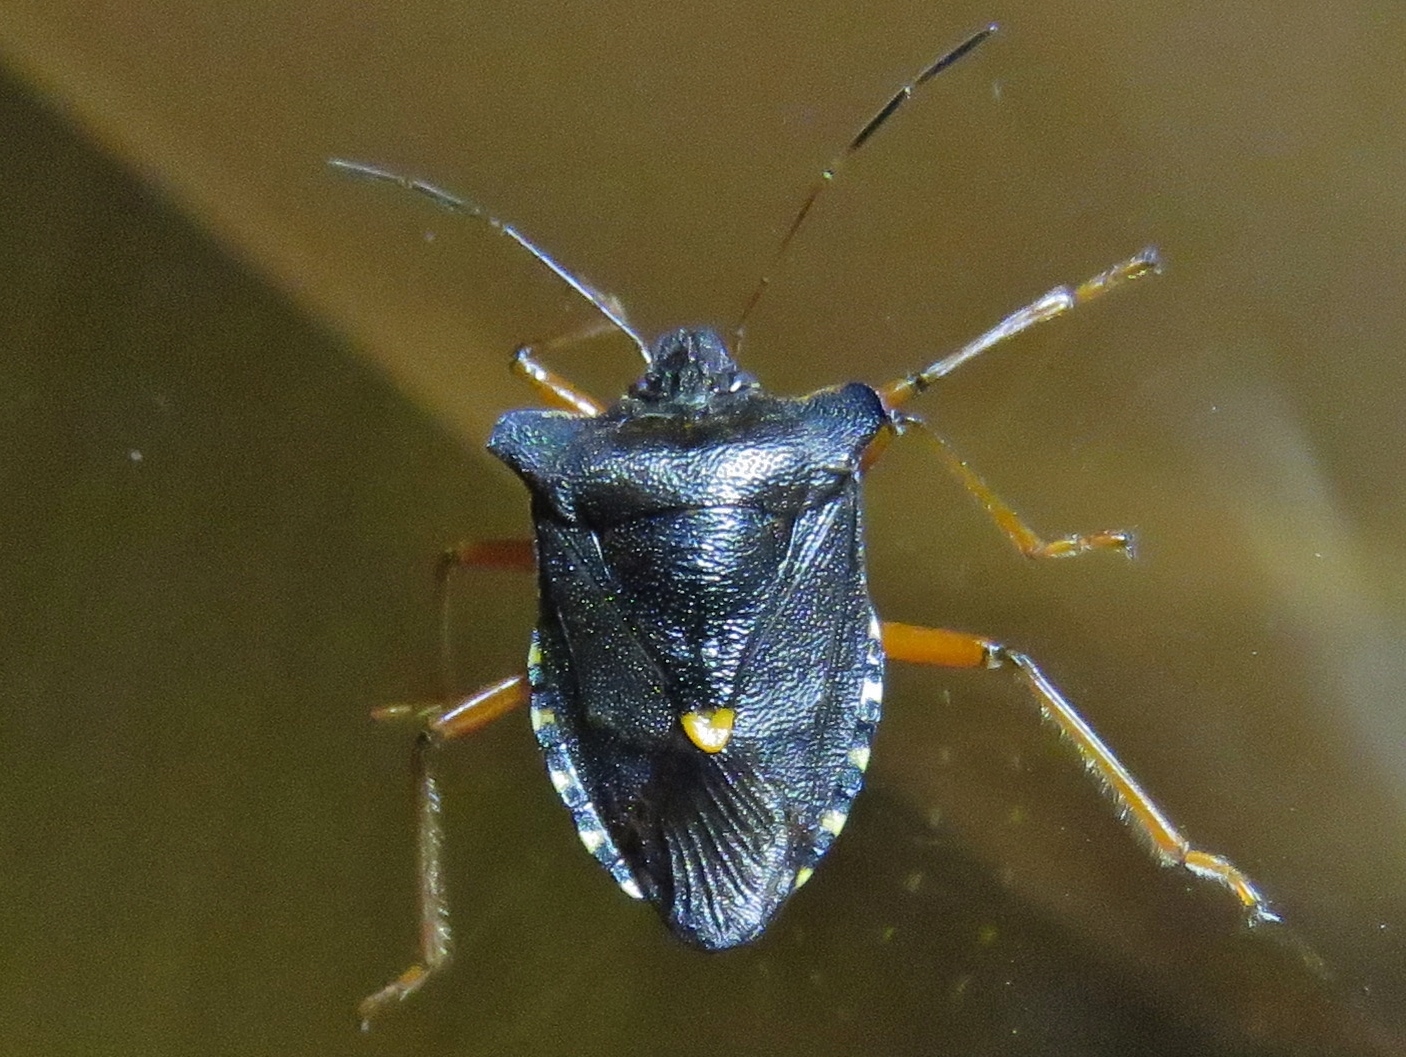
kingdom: Animalia
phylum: Arthropoda
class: Insecta
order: Hemiptera
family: Pentatomidae
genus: Pentatoma
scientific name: Pentatoma rufipes
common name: Forest bug
